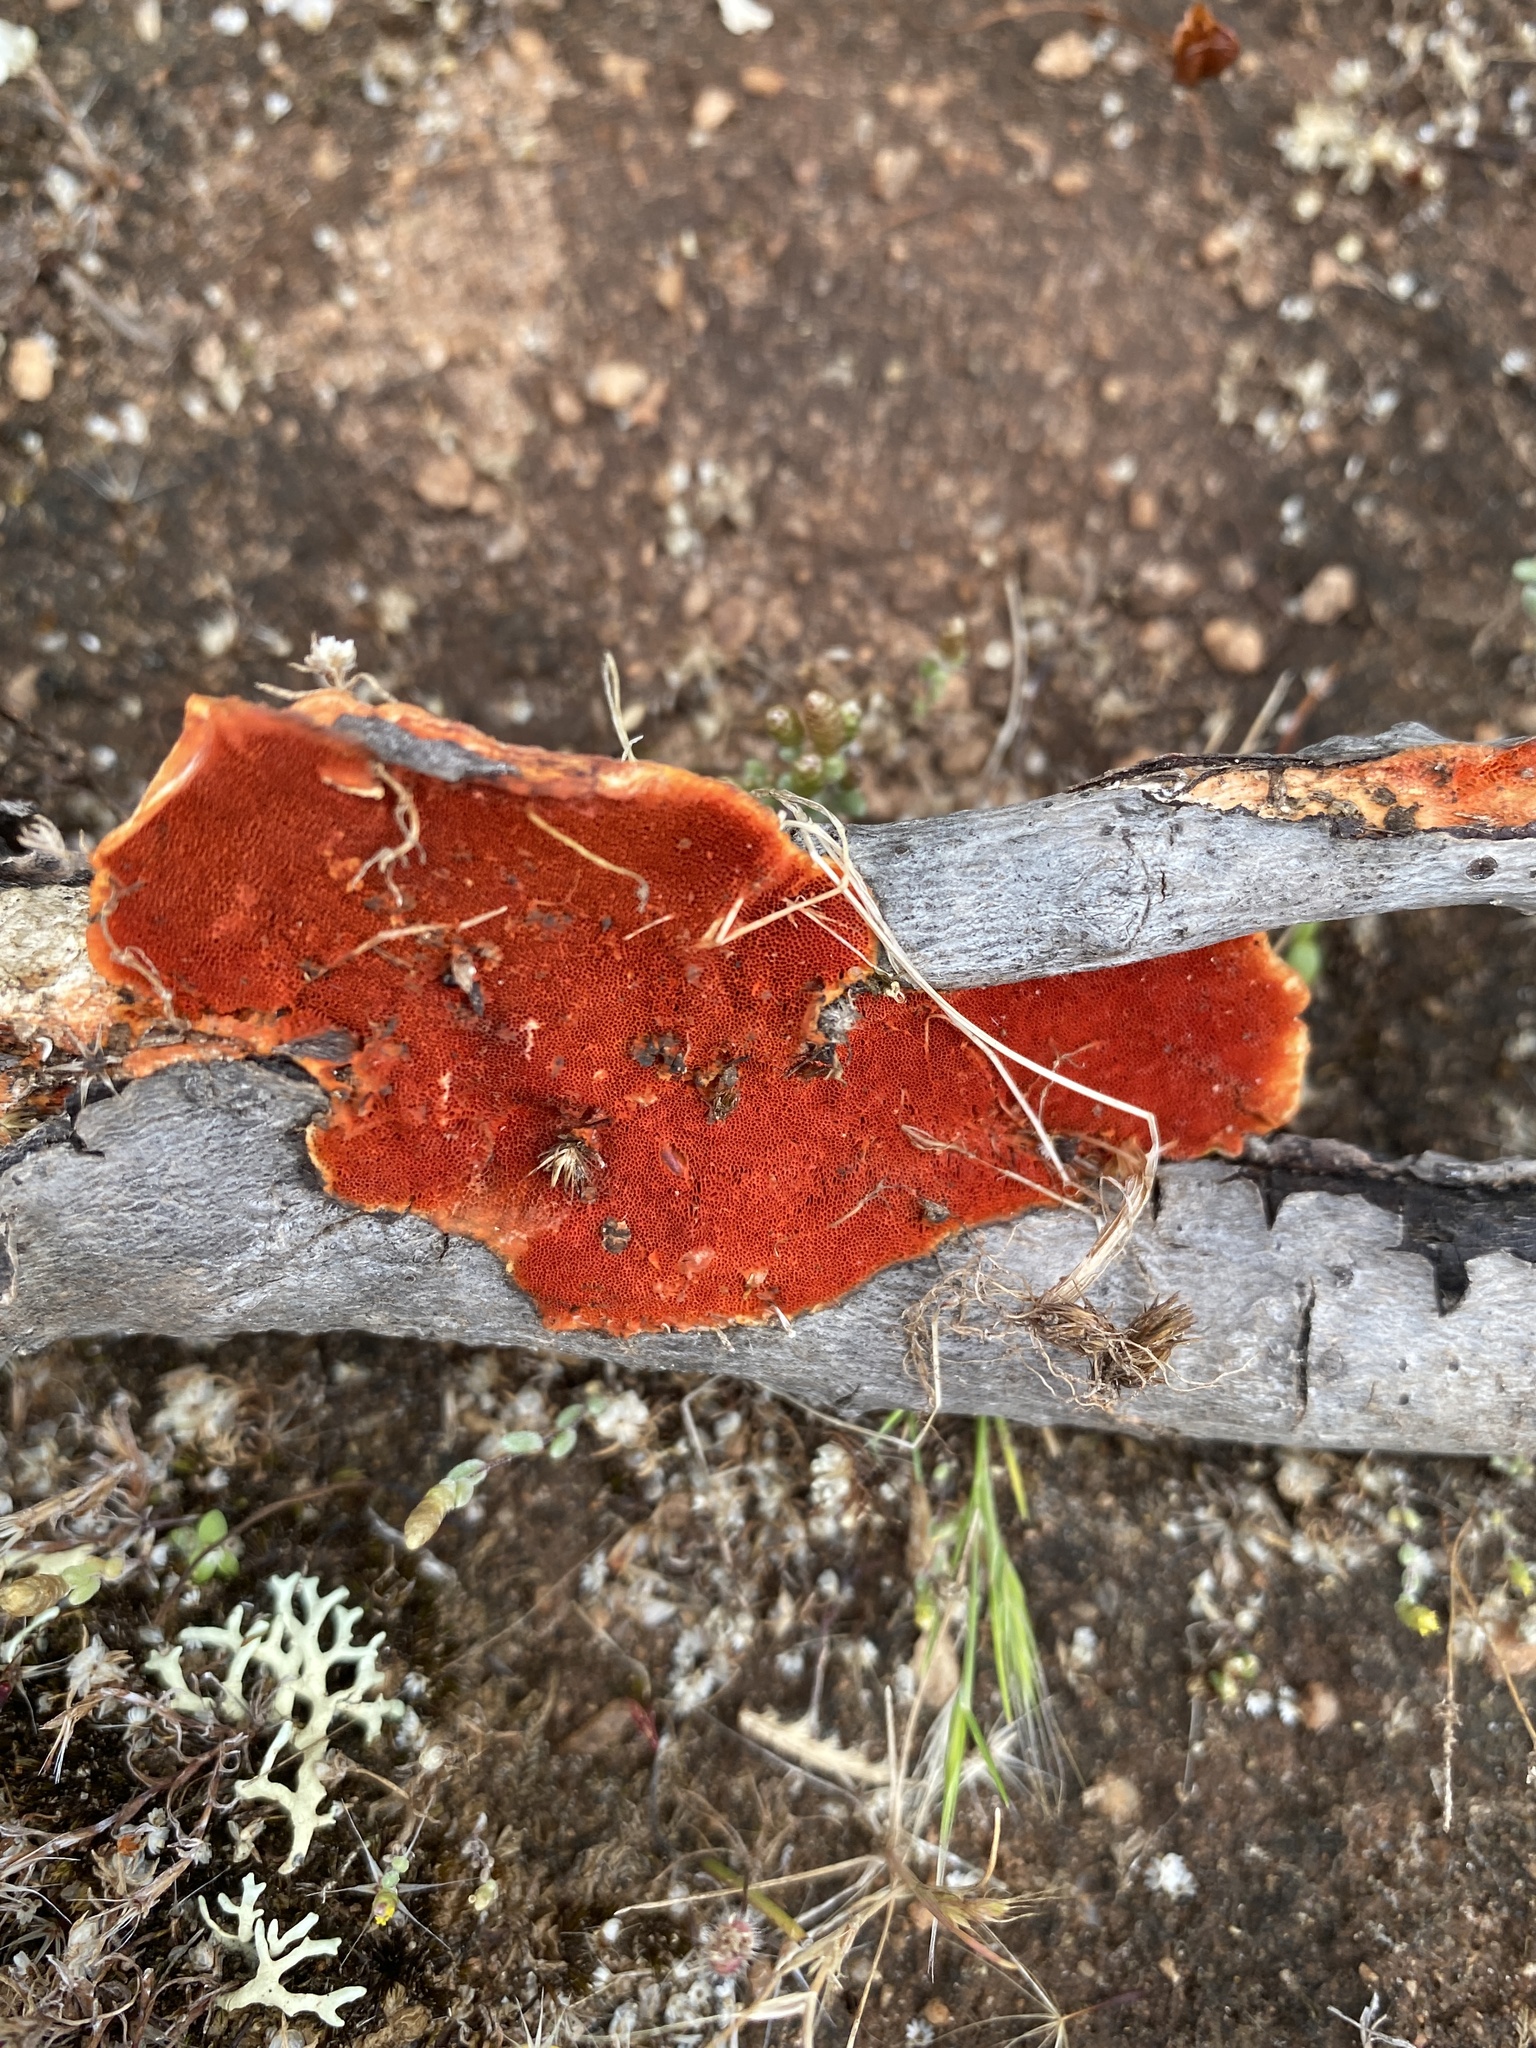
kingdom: Fungi
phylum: Basidiomycota
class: Agaricomycetes
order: Polyporales
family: Polyporaceae
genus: Trametes
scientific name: Trametes coccinea
